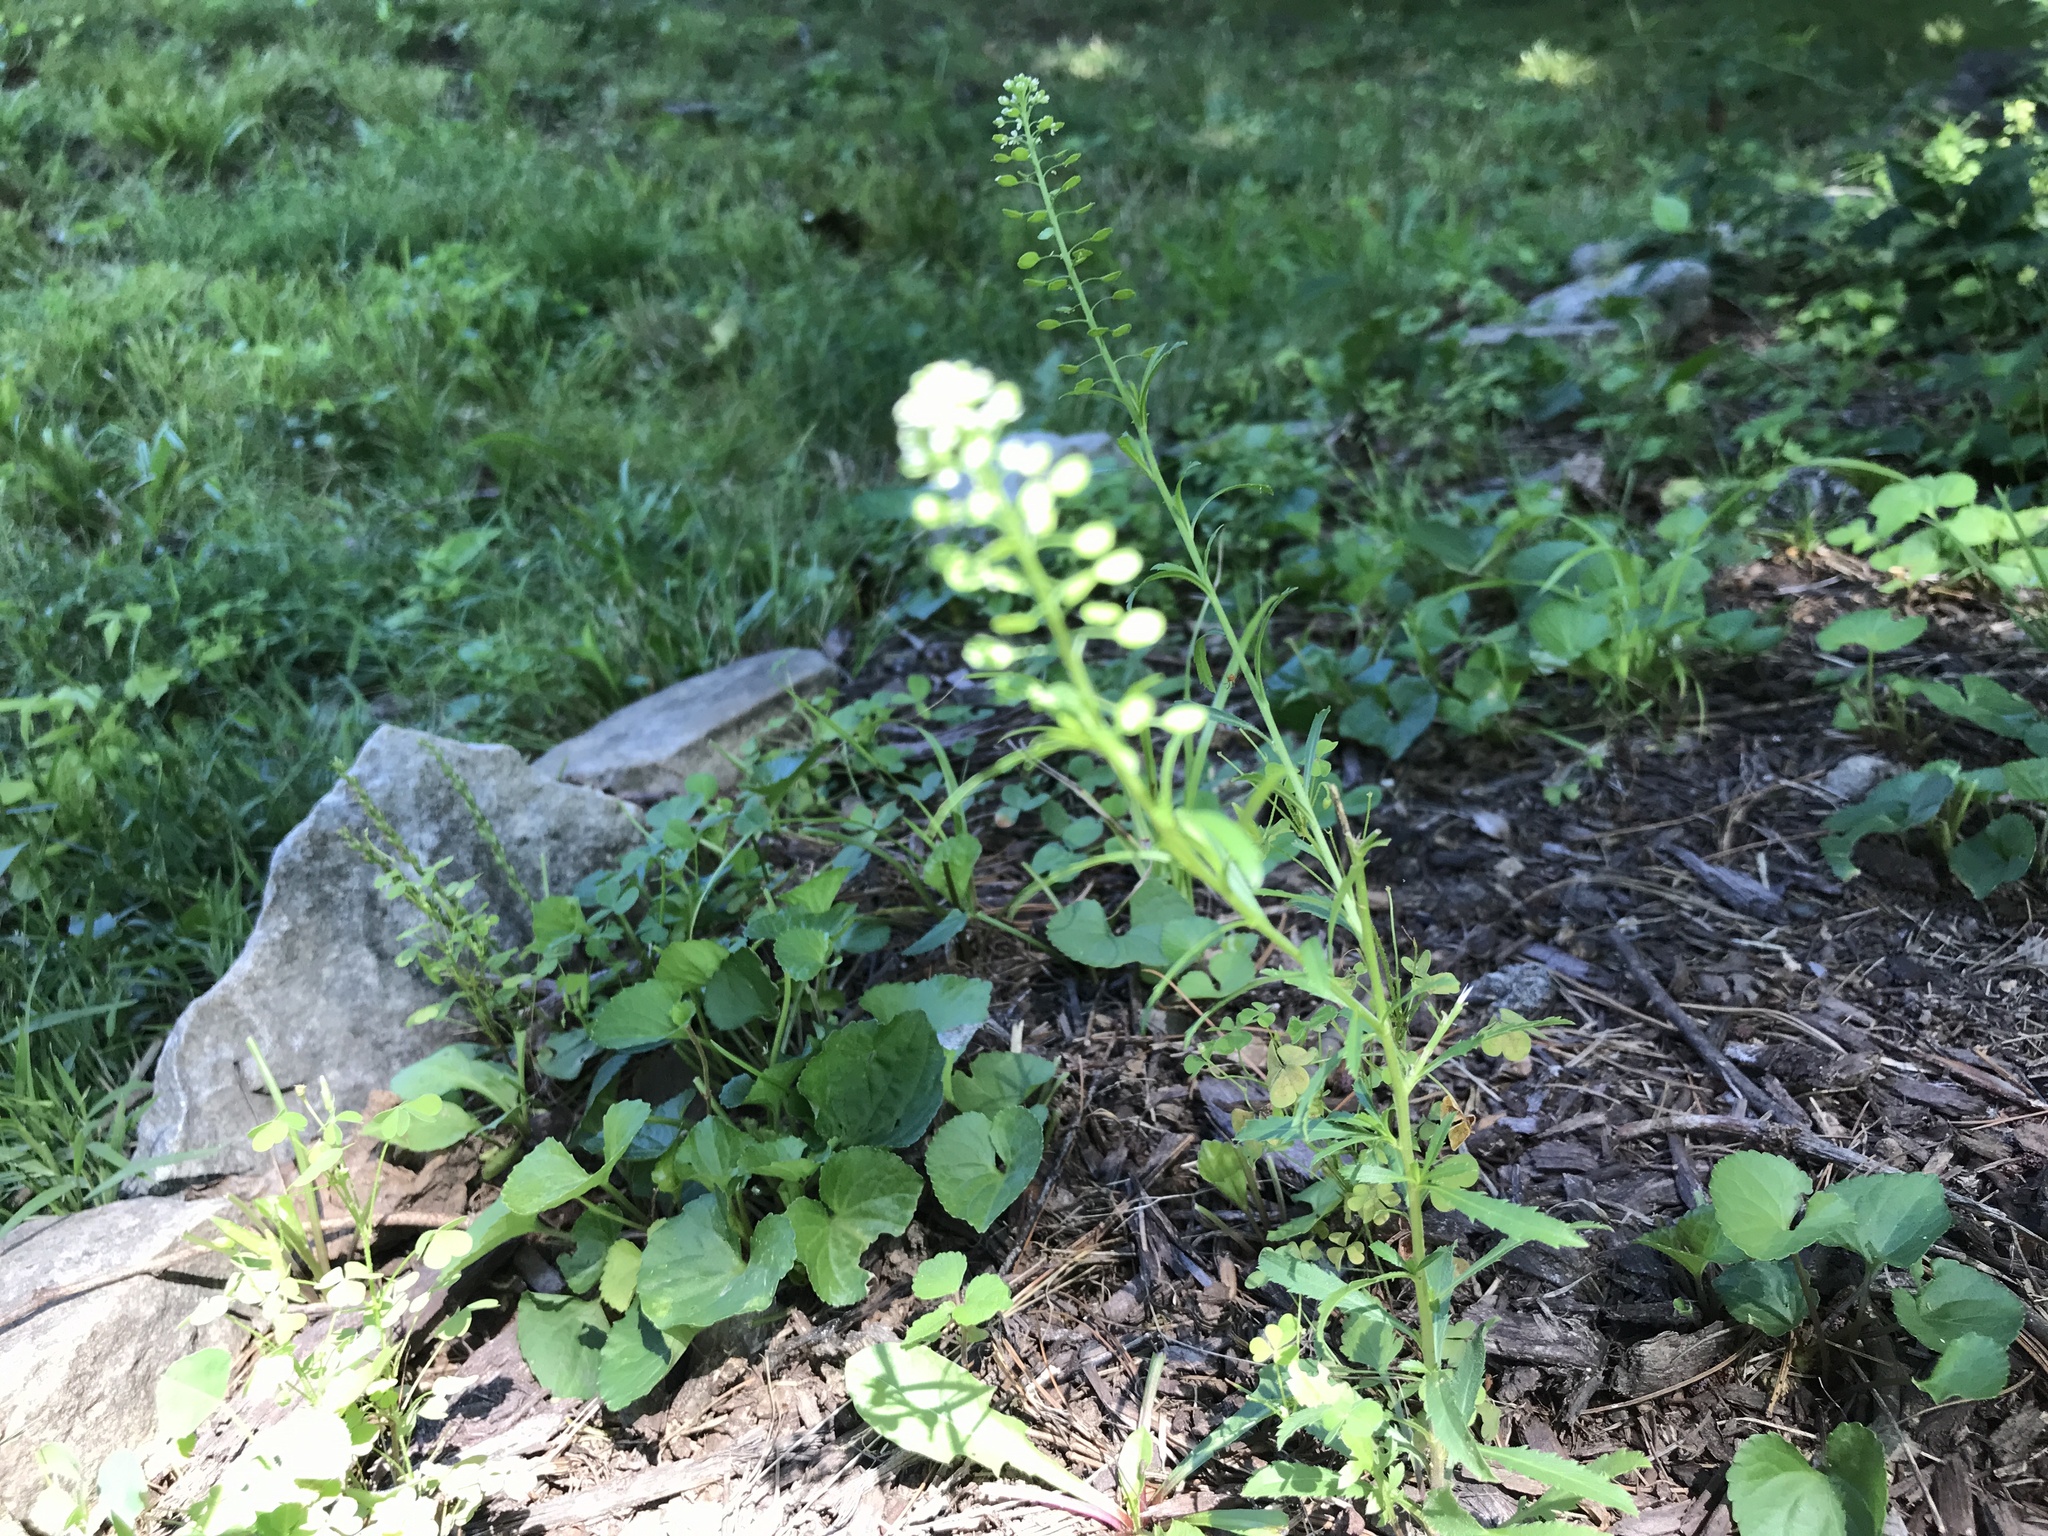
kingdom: Plantae
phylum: Tracheophyta
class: Magnoliopsida
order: Brassicales
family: Brassicaceae
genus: Lepidium
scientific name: Lepidium virginicum
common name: Least pepperwort
